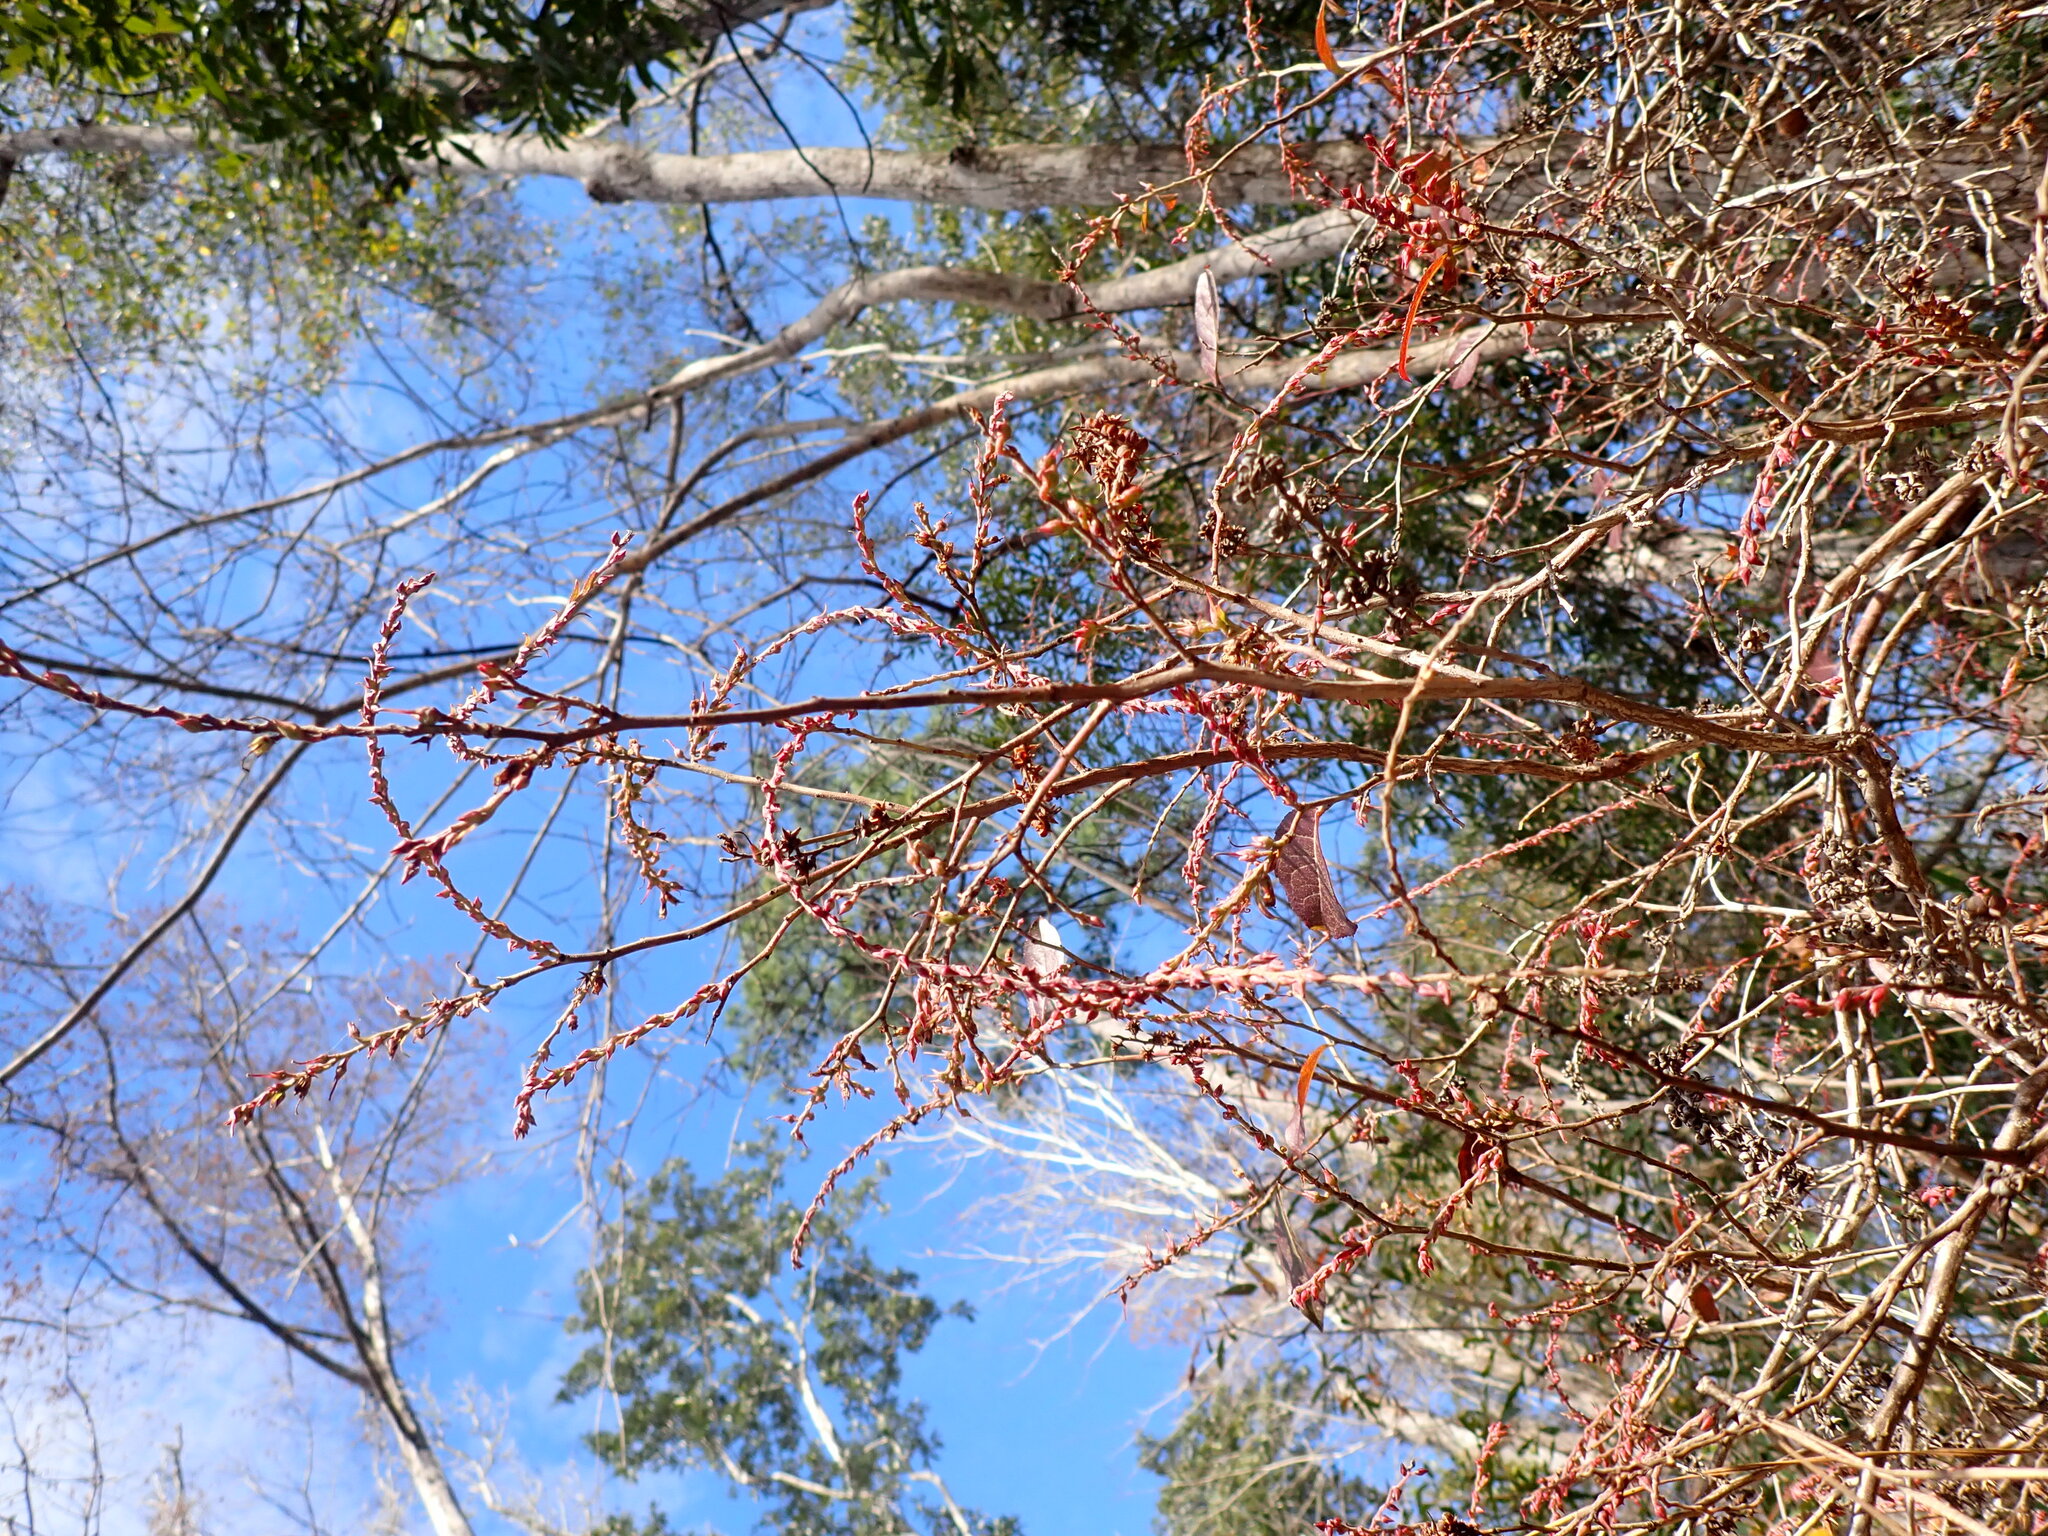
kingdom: Plantae
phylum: Tracheophyta
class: Magnoliopsida
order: Ericales
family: Ericaceae
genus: Eubotrys
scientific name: Eubotrys racemosa
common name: Fetterbush
